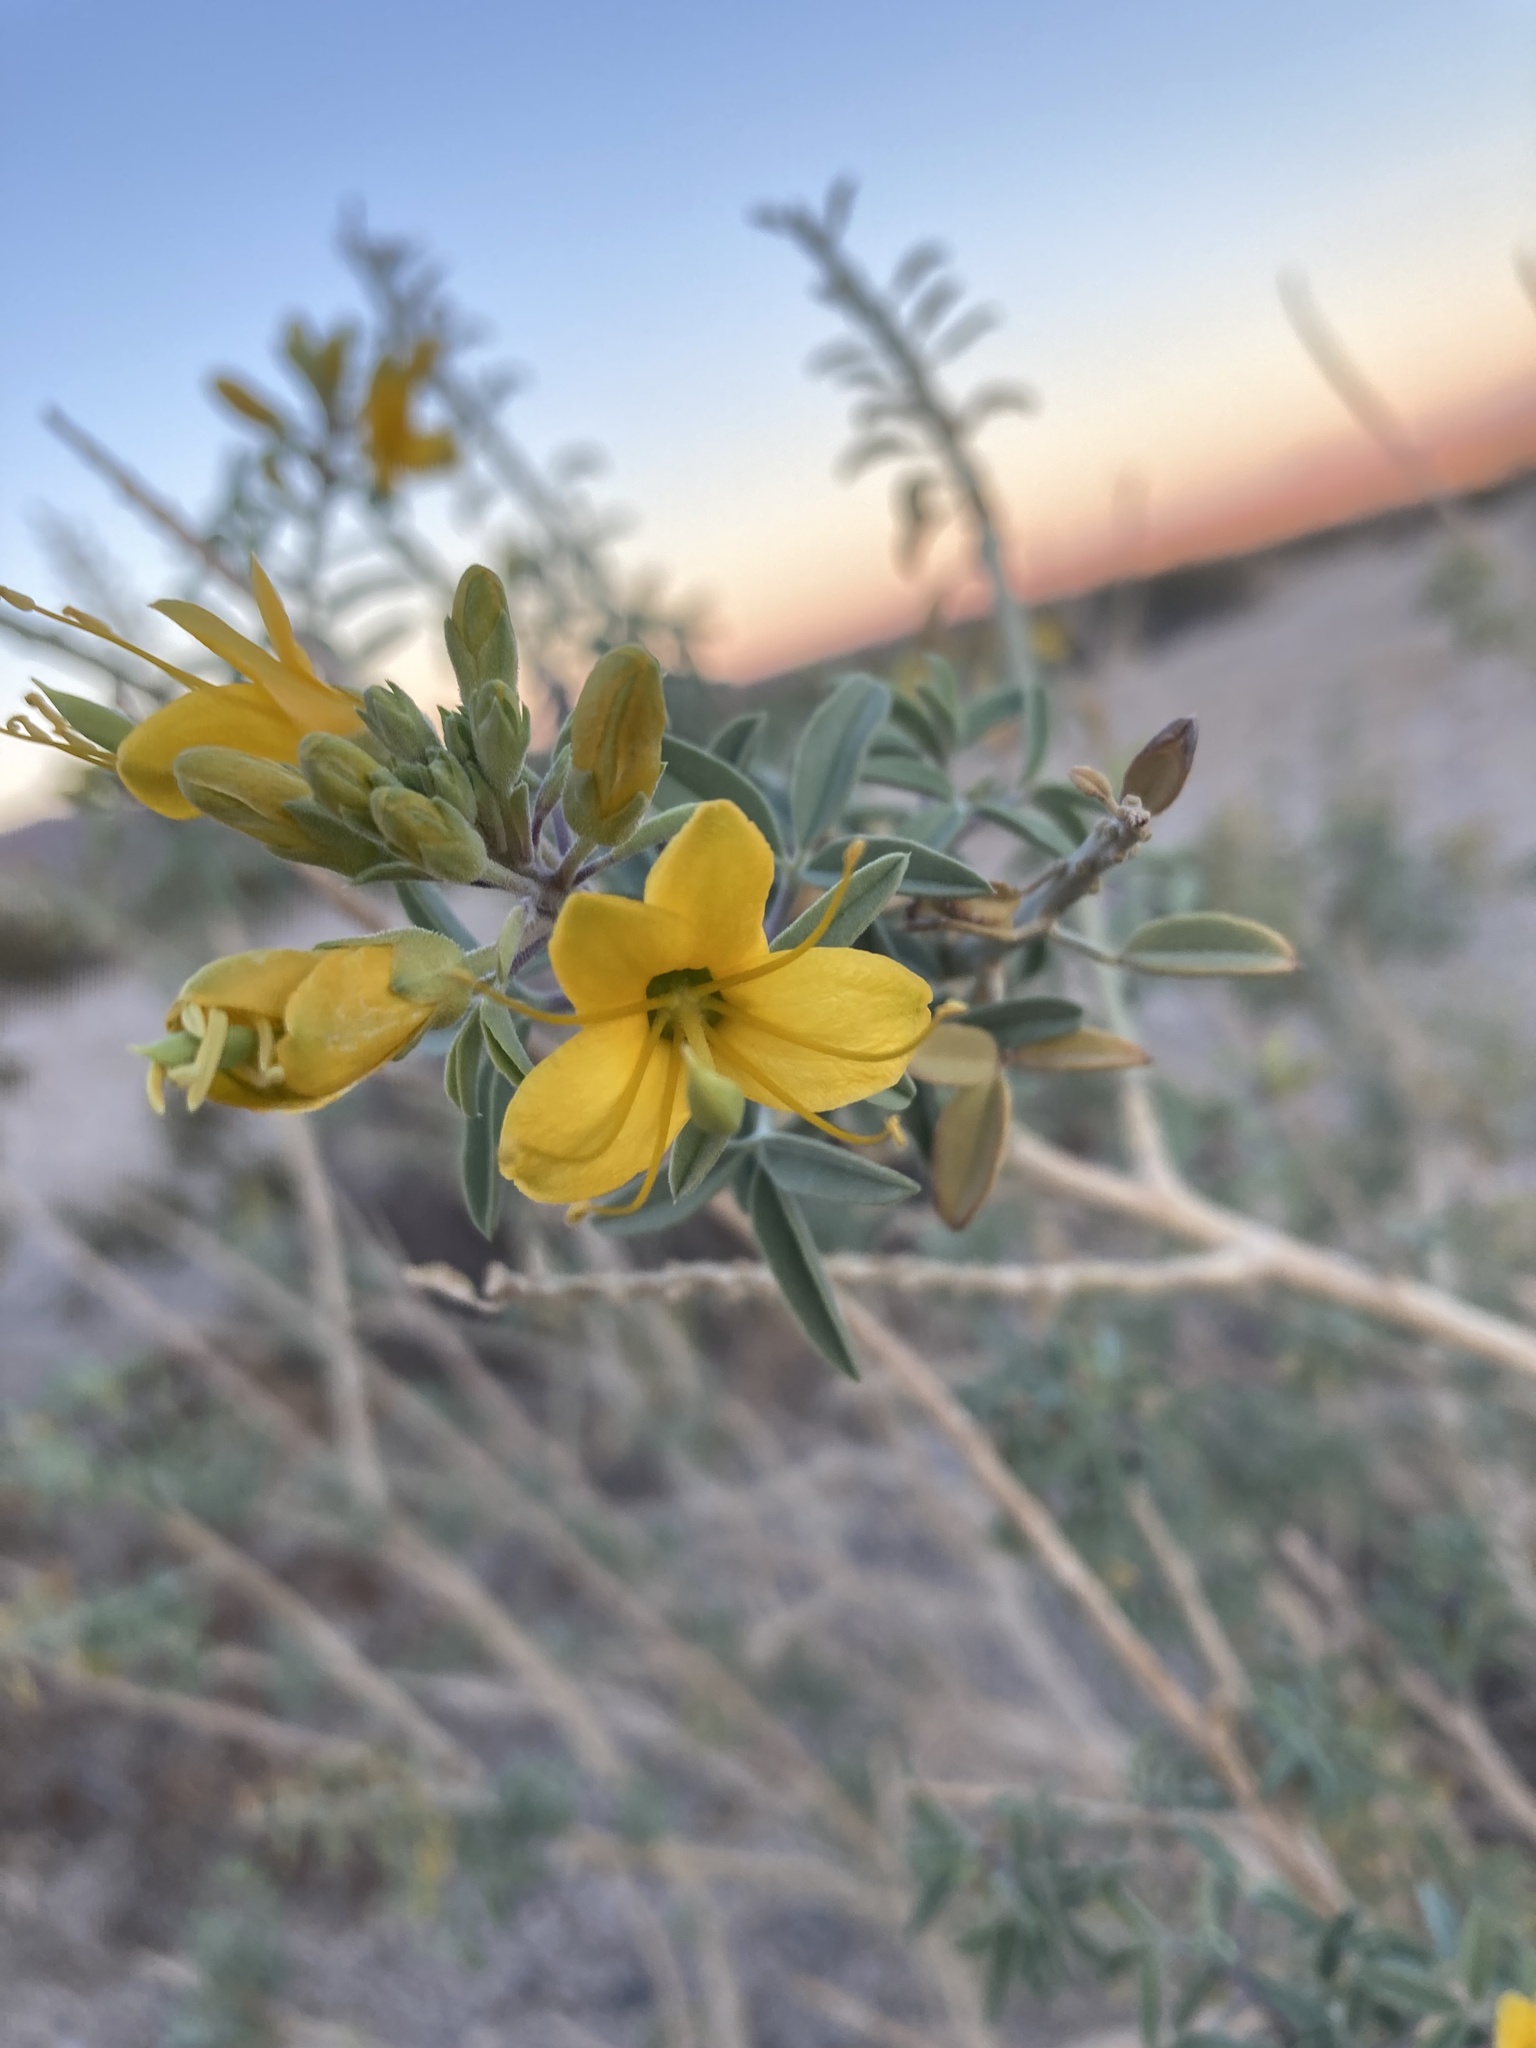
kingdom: Plantae
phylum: Tracheophyta
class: Magnoliopsida
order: Brassicales
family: Cleomaceae
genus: Cleomella
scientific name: Cleomella arborea
